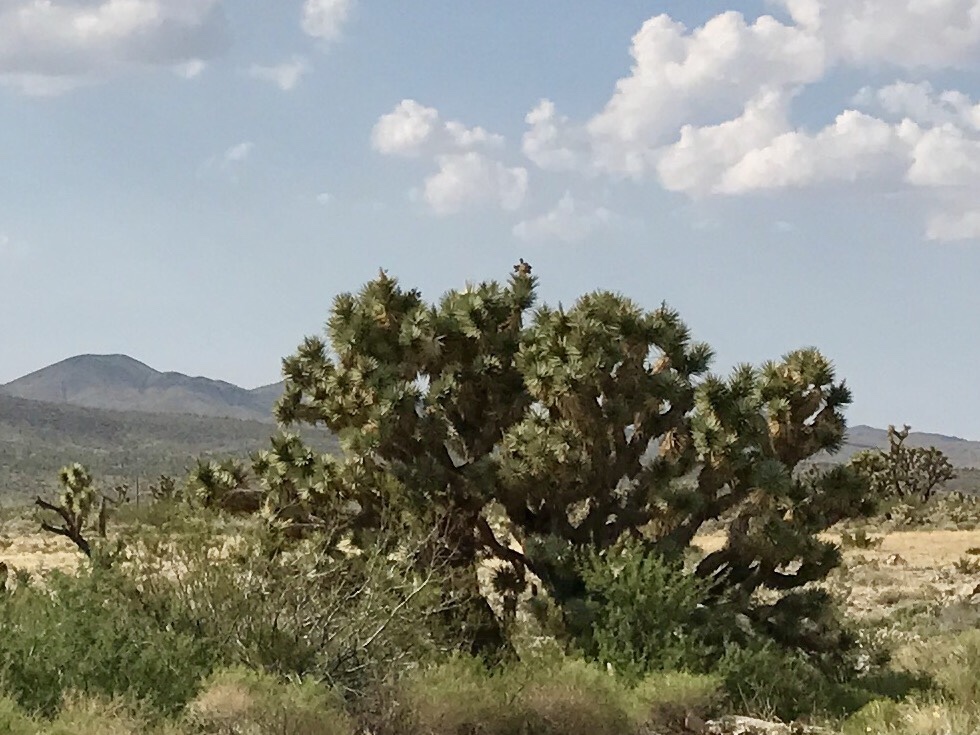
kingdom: Plantae
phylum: Tracheophyta
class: Liliopsida
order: Asparagales
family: Asparagaceae
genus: Yucca
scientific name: Yucca brevifolia
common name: Joshua tree
